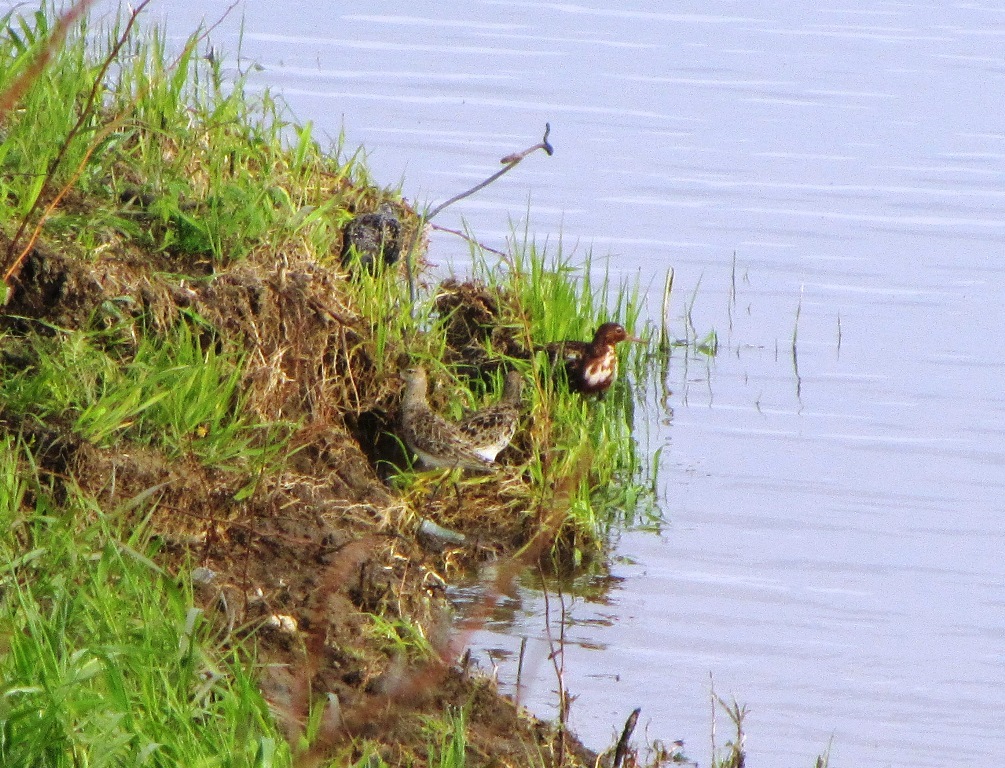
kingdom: Animalia
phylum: Chordata
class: Aves
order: Charadriiformes
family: Scolopacidae
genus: Calidris
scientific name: Calidris pugnax
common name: Ruff
